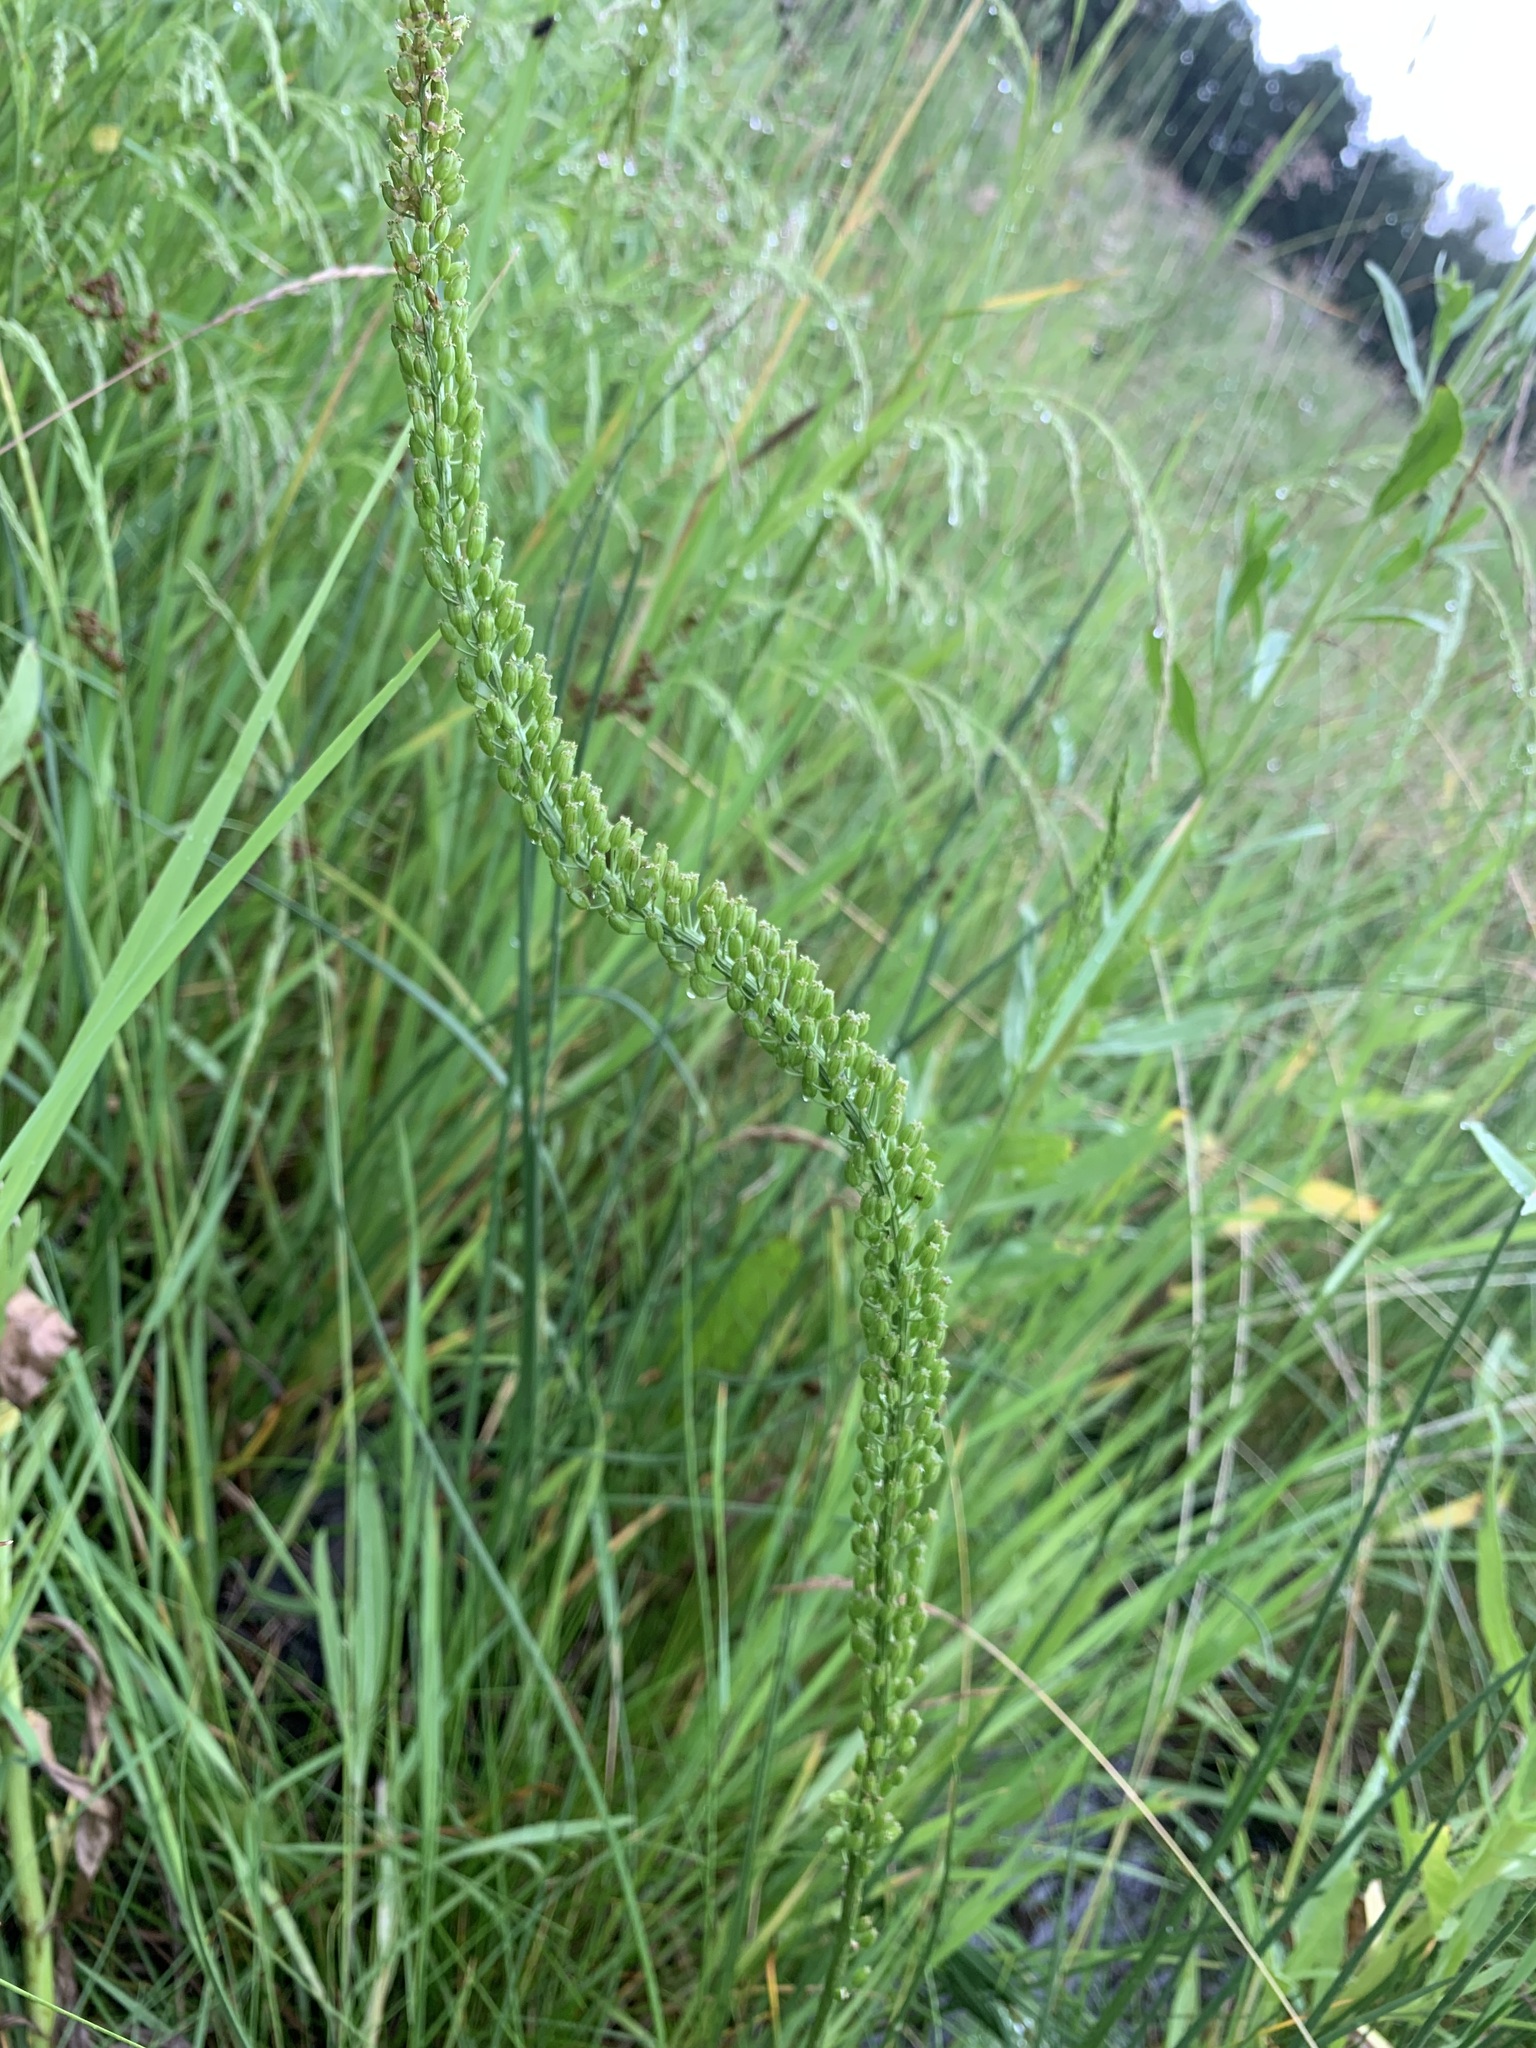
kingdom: Plantae
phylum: Tracheophyta
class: Liliopsida
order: Alismatales
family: Juncaginaceae
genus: Triglochin
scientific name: Triglochin maritima
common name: Sea arrowgrass
